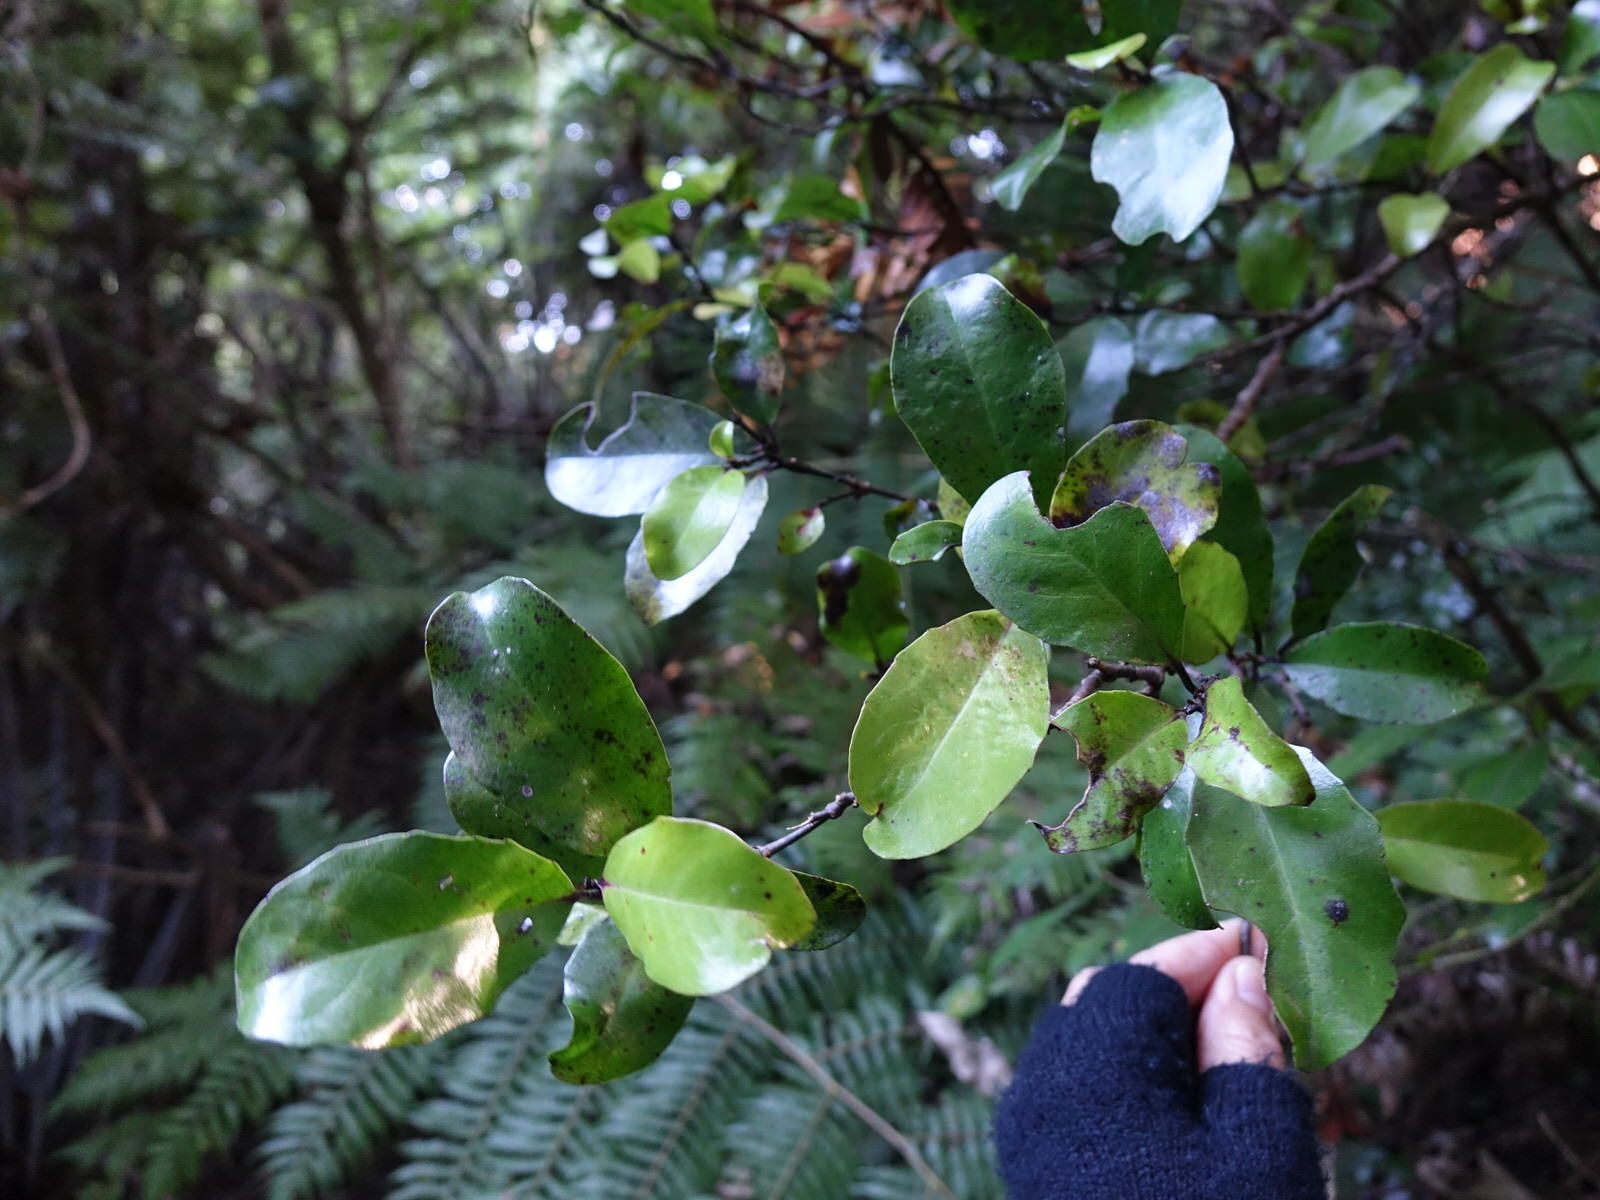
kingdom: Plantae
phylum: Tracheophyta
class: Magnoliopsida
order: Laurales
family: Monimiaceae
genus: Hedycarya
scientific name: Hedycarya arborea
